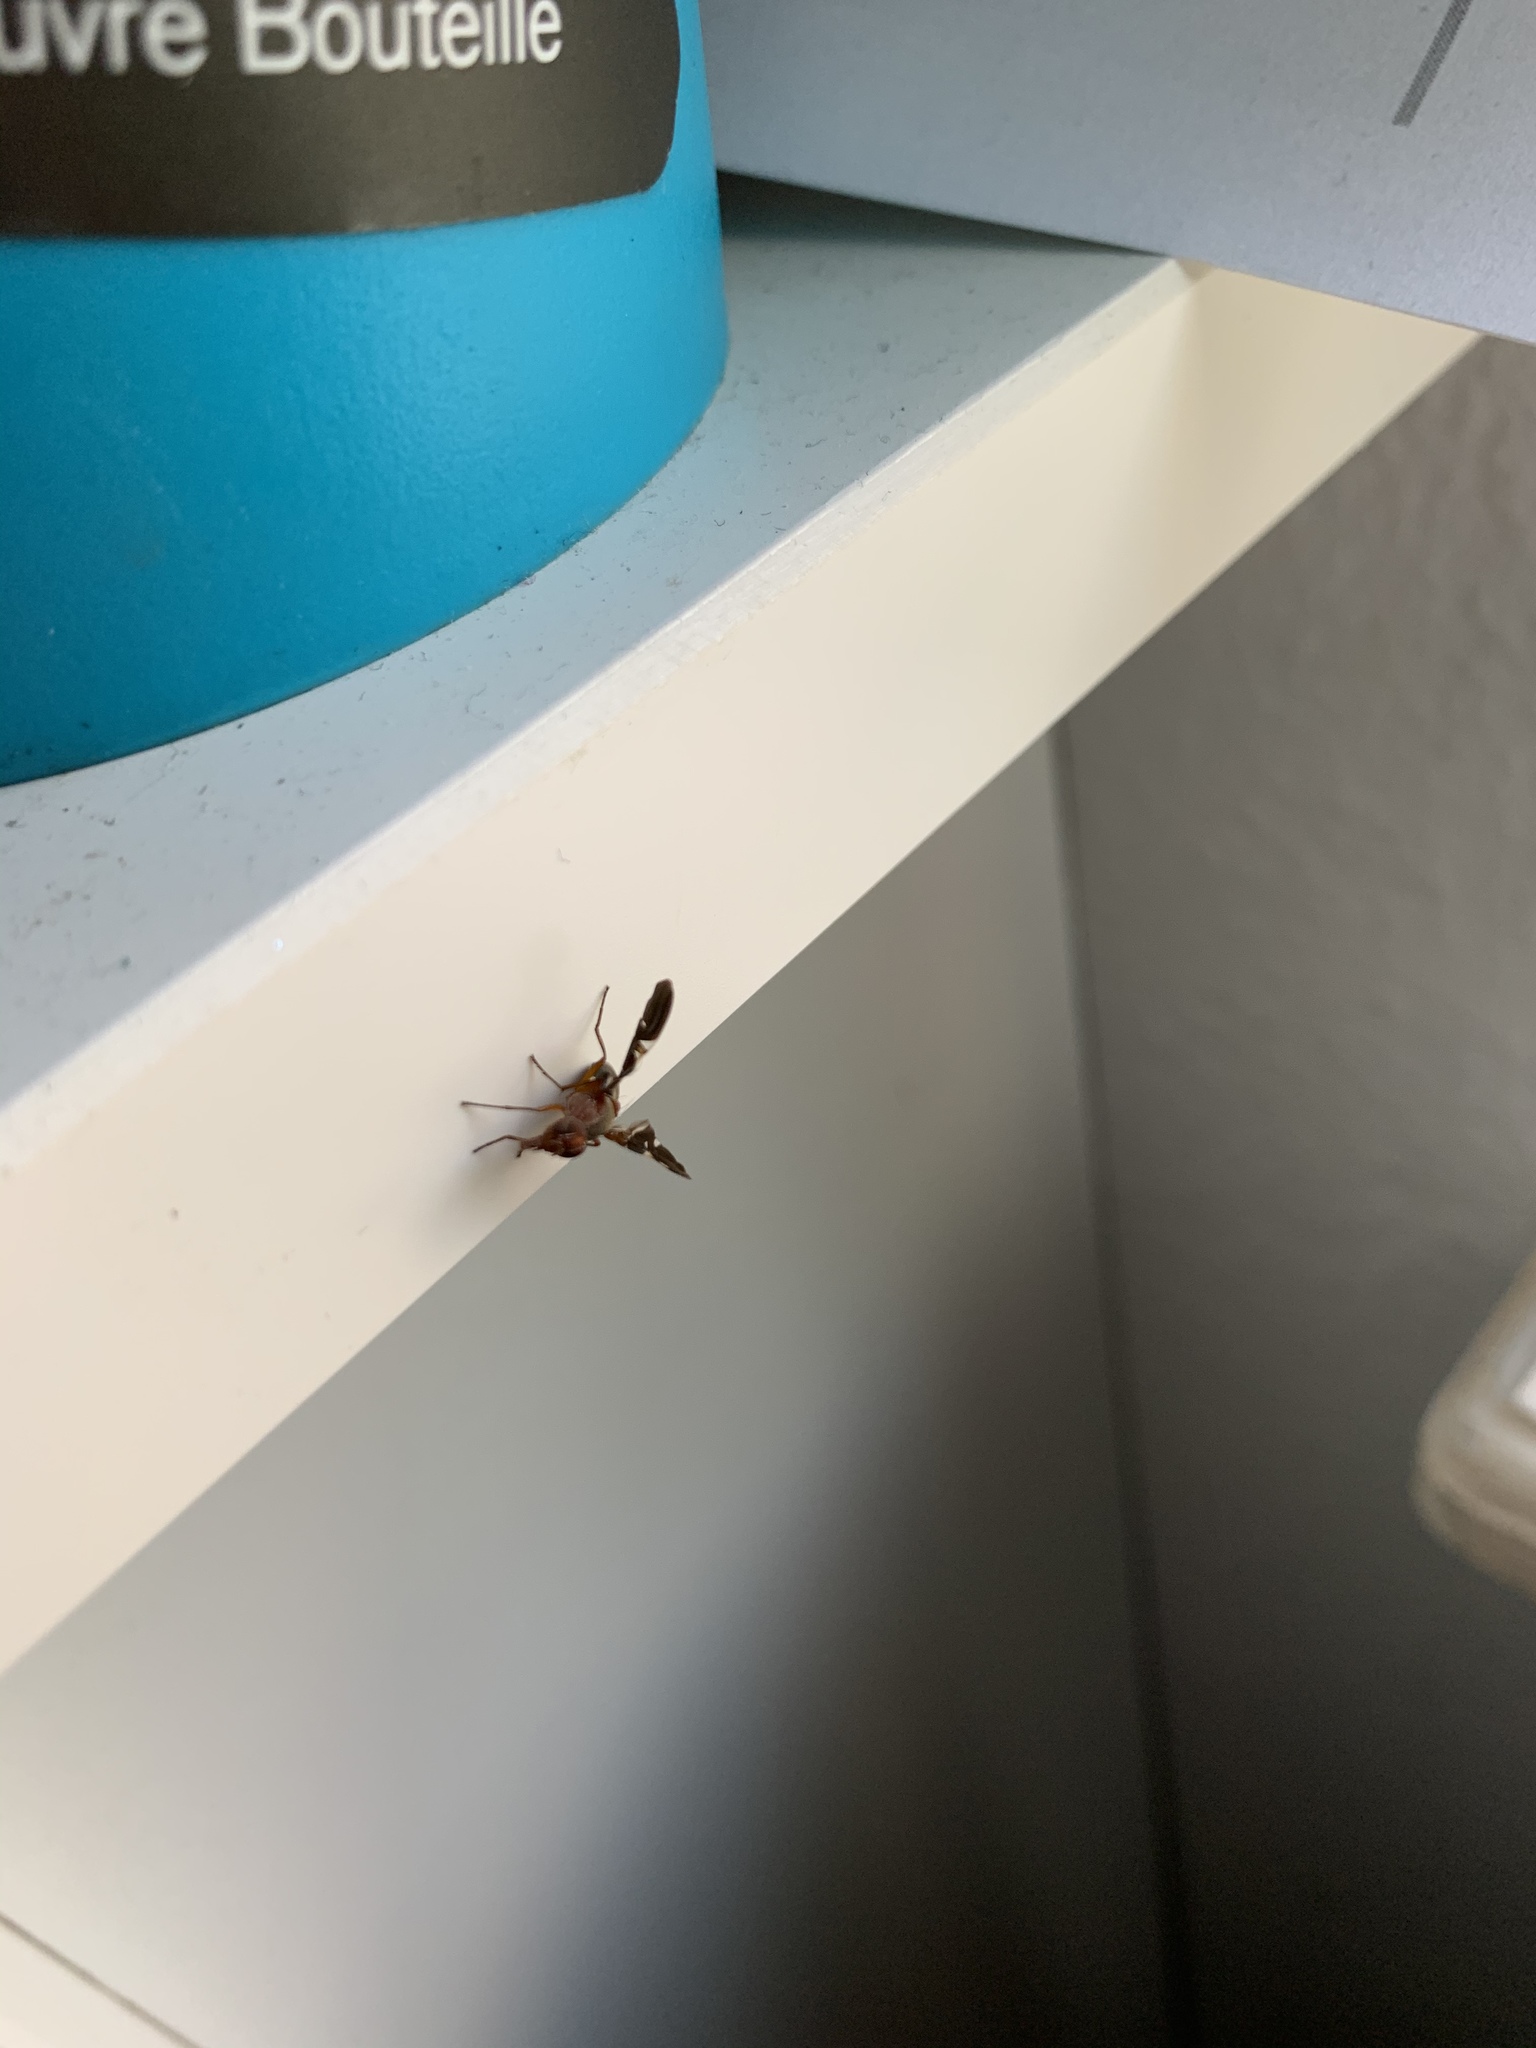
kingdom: Animalia
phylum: Arthropoda
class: Insecta
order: Diptera
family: Ulidiidae
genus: Delphinia
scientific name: Delphinia picta
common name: Common picture-winged fly
